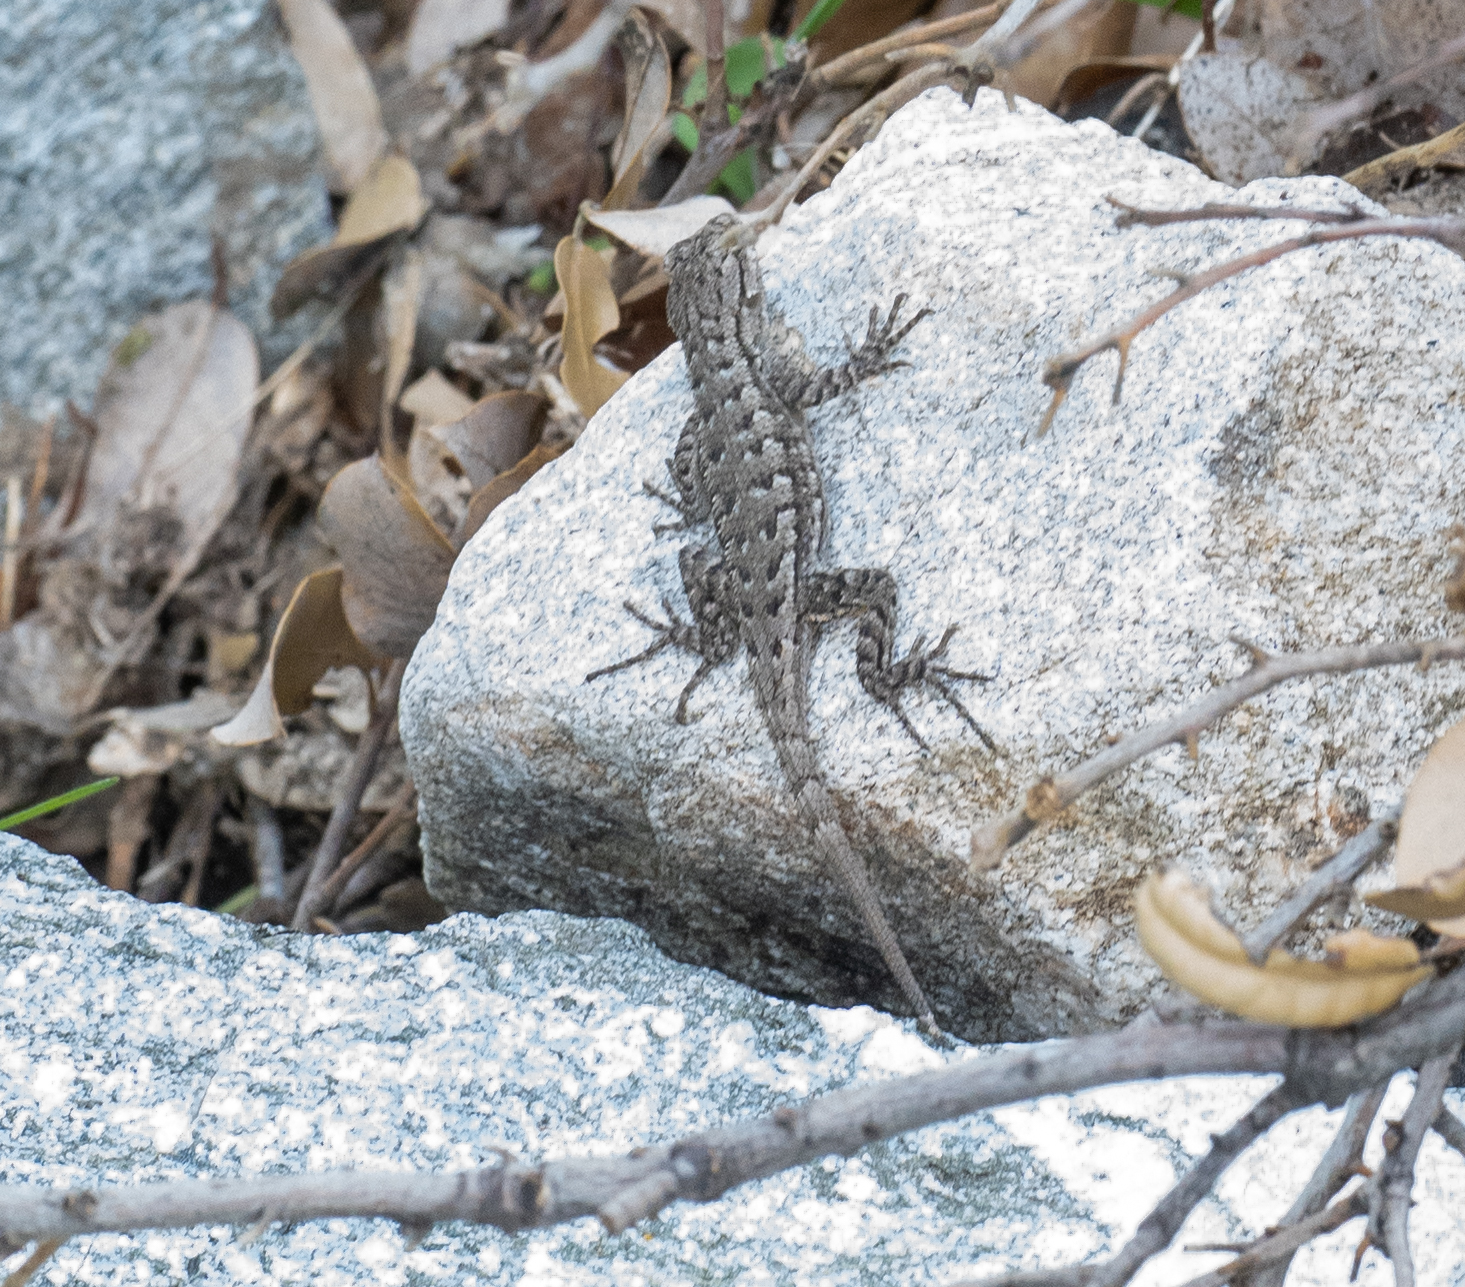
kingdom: Animalia
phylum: Chordata
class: Squamata
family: Phrynosomatidae
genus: Sceloporus
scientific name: Sceloporus occidentalis
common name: Western fence lizard
